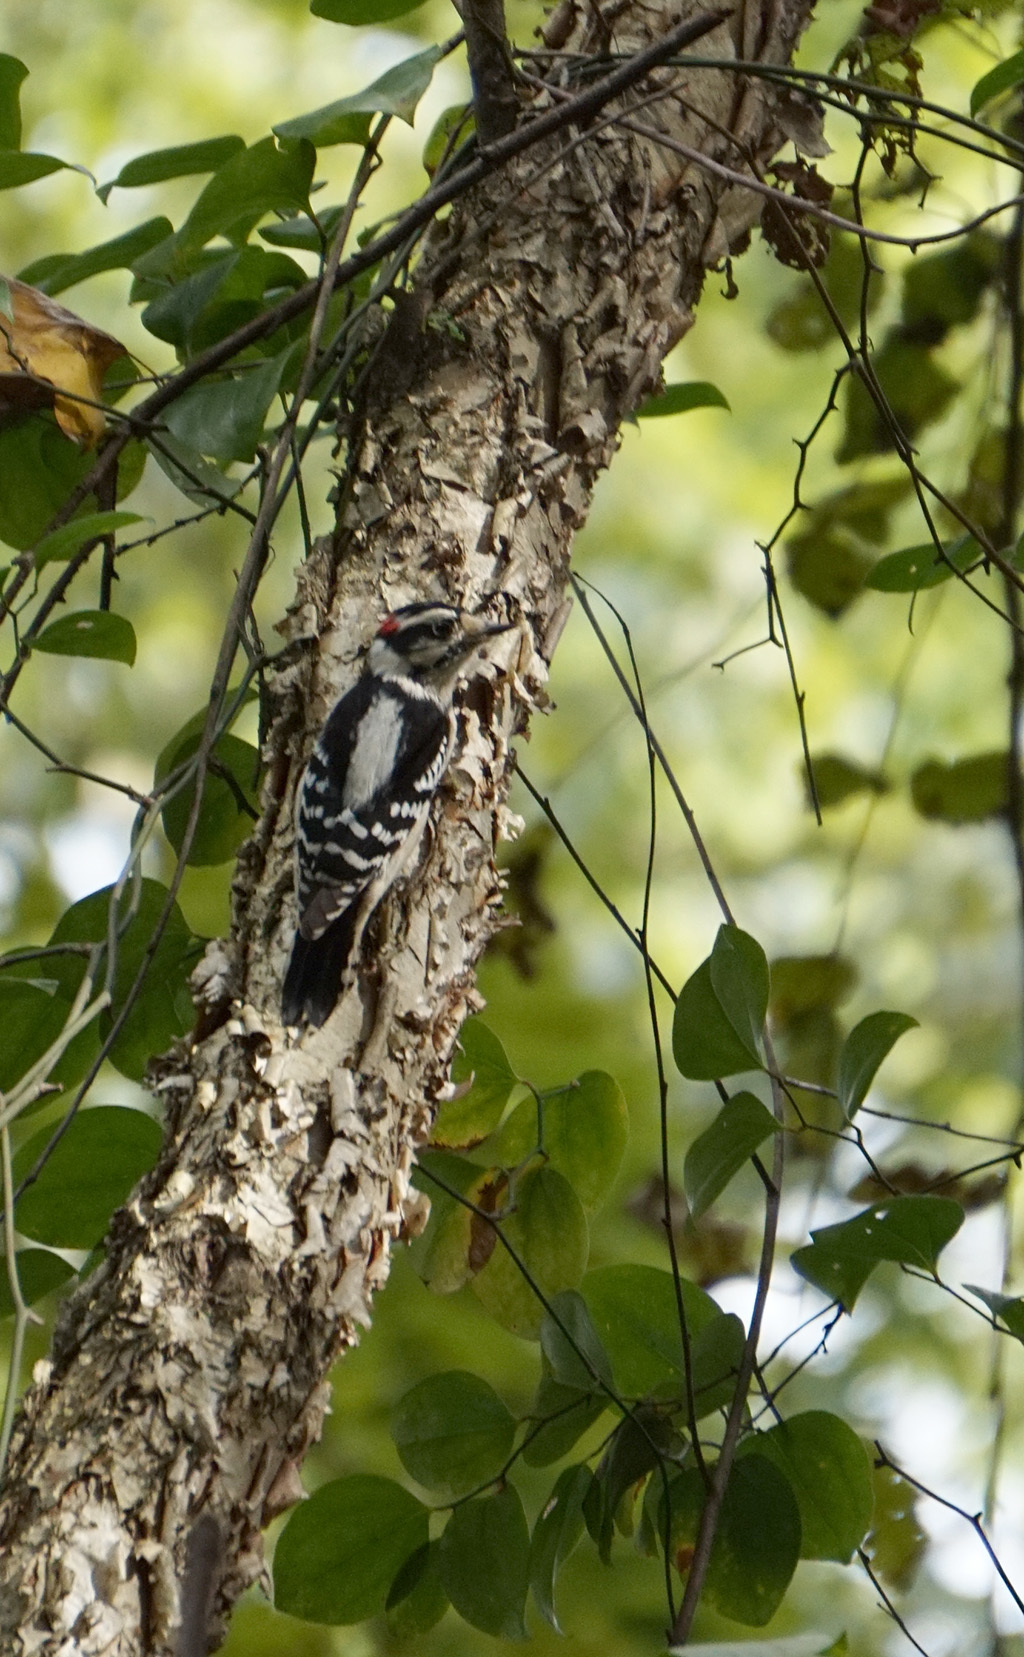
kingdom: Animalia
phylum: Chordata
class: Aves
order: Piciformes
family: Picidae
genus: Dryobates
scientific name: Dryobates pubescens
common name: Downy woodpecker
